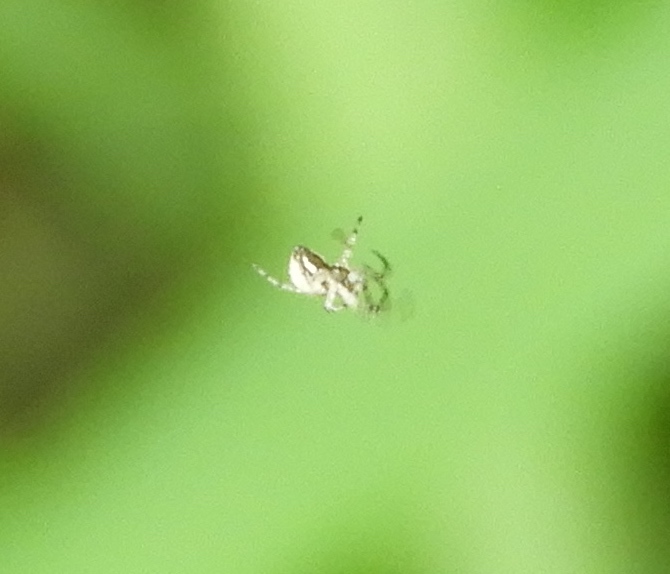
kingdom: Animalia
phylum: Arthropoda
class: Arachnida
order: Araneae
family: Araneidae
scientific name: Araneidae
